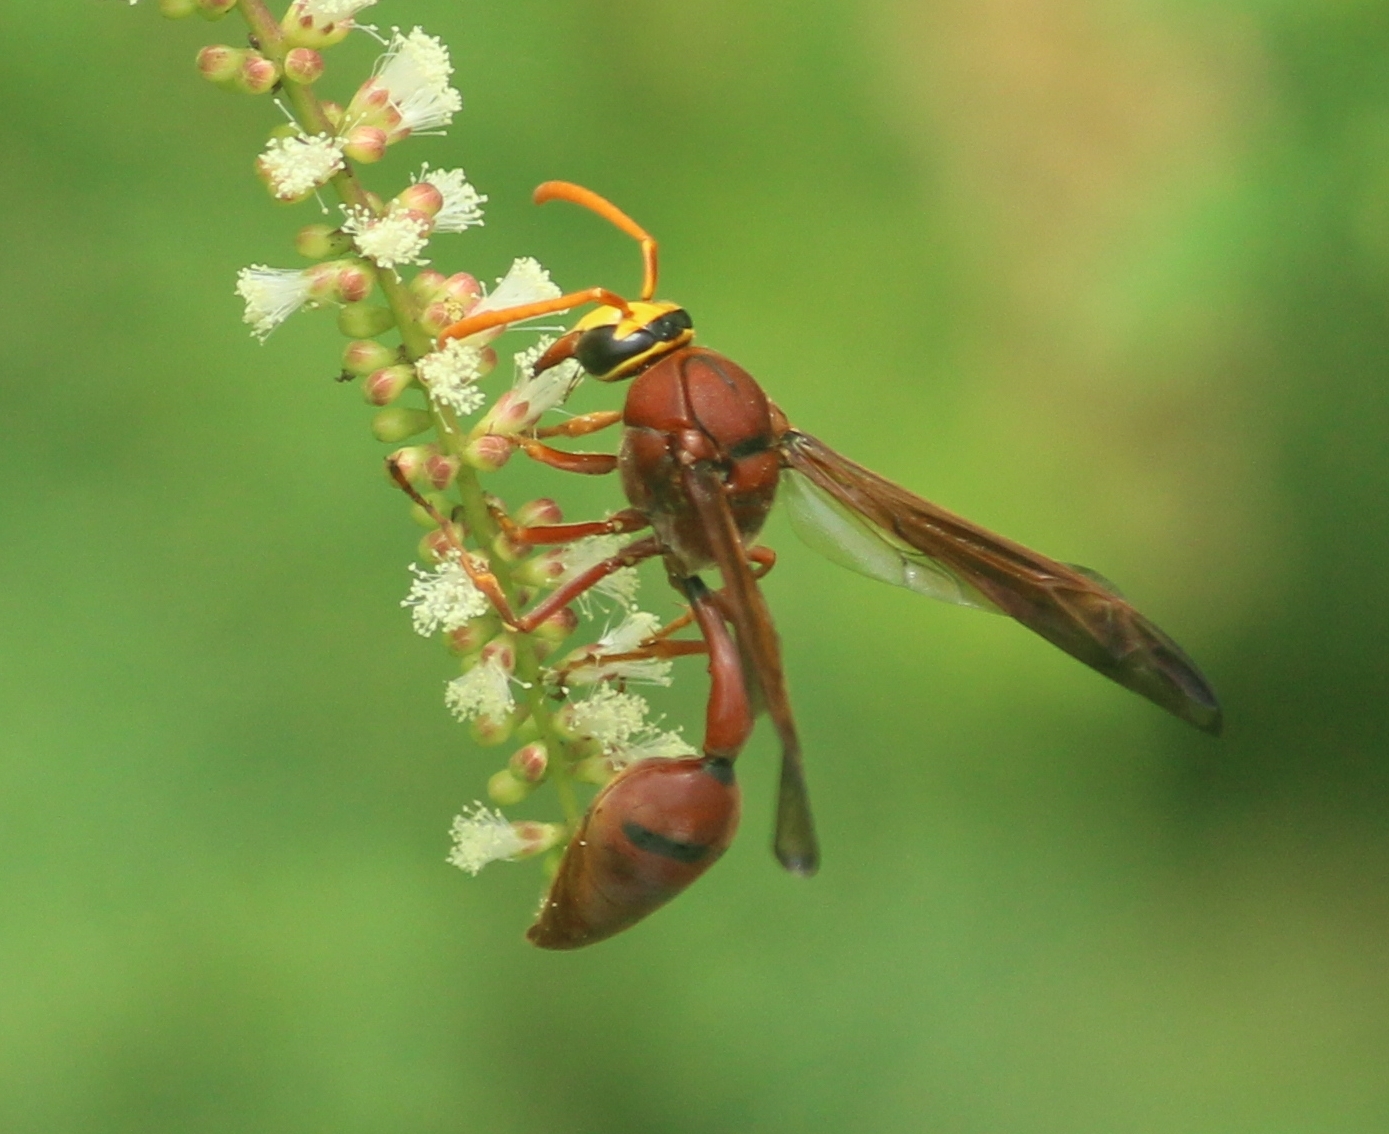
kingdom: Animalia
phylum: Arthropoda
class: Insecta
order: Hymenoptera
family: Eumenidae
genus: Delta
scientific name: Delta conoideum
